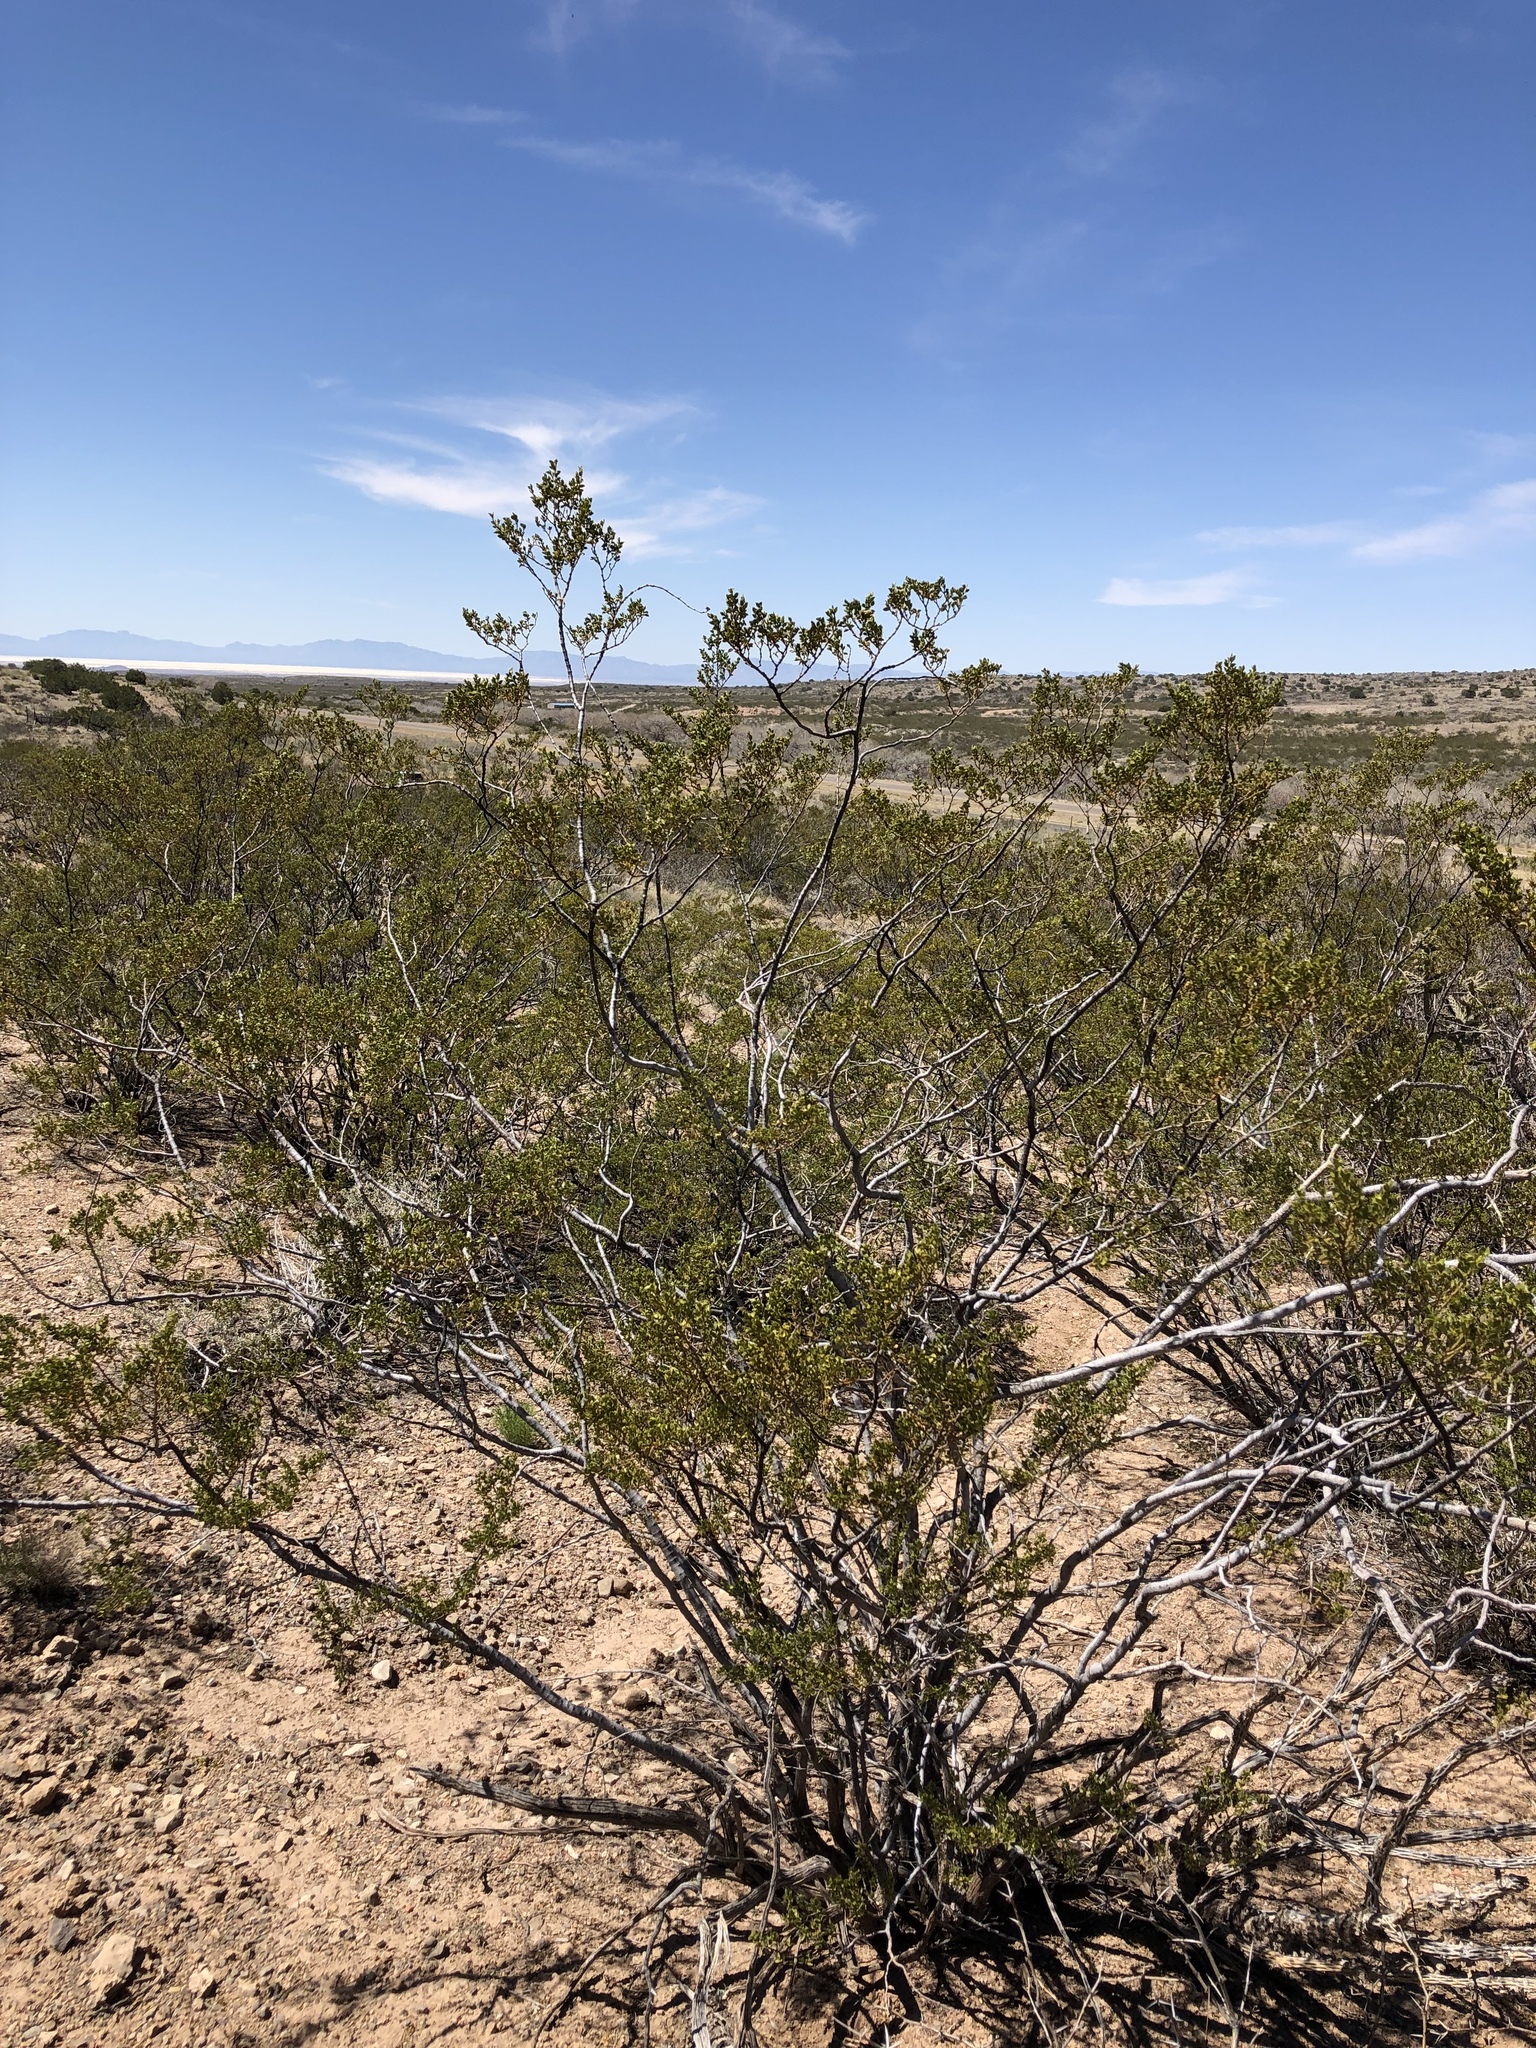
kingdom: Plantae
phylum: Tracheophyta
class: Magnoliopsida
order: Zygophyllales
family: Zygophyllaceae
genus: Larrea
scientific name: Larrea tridentata
